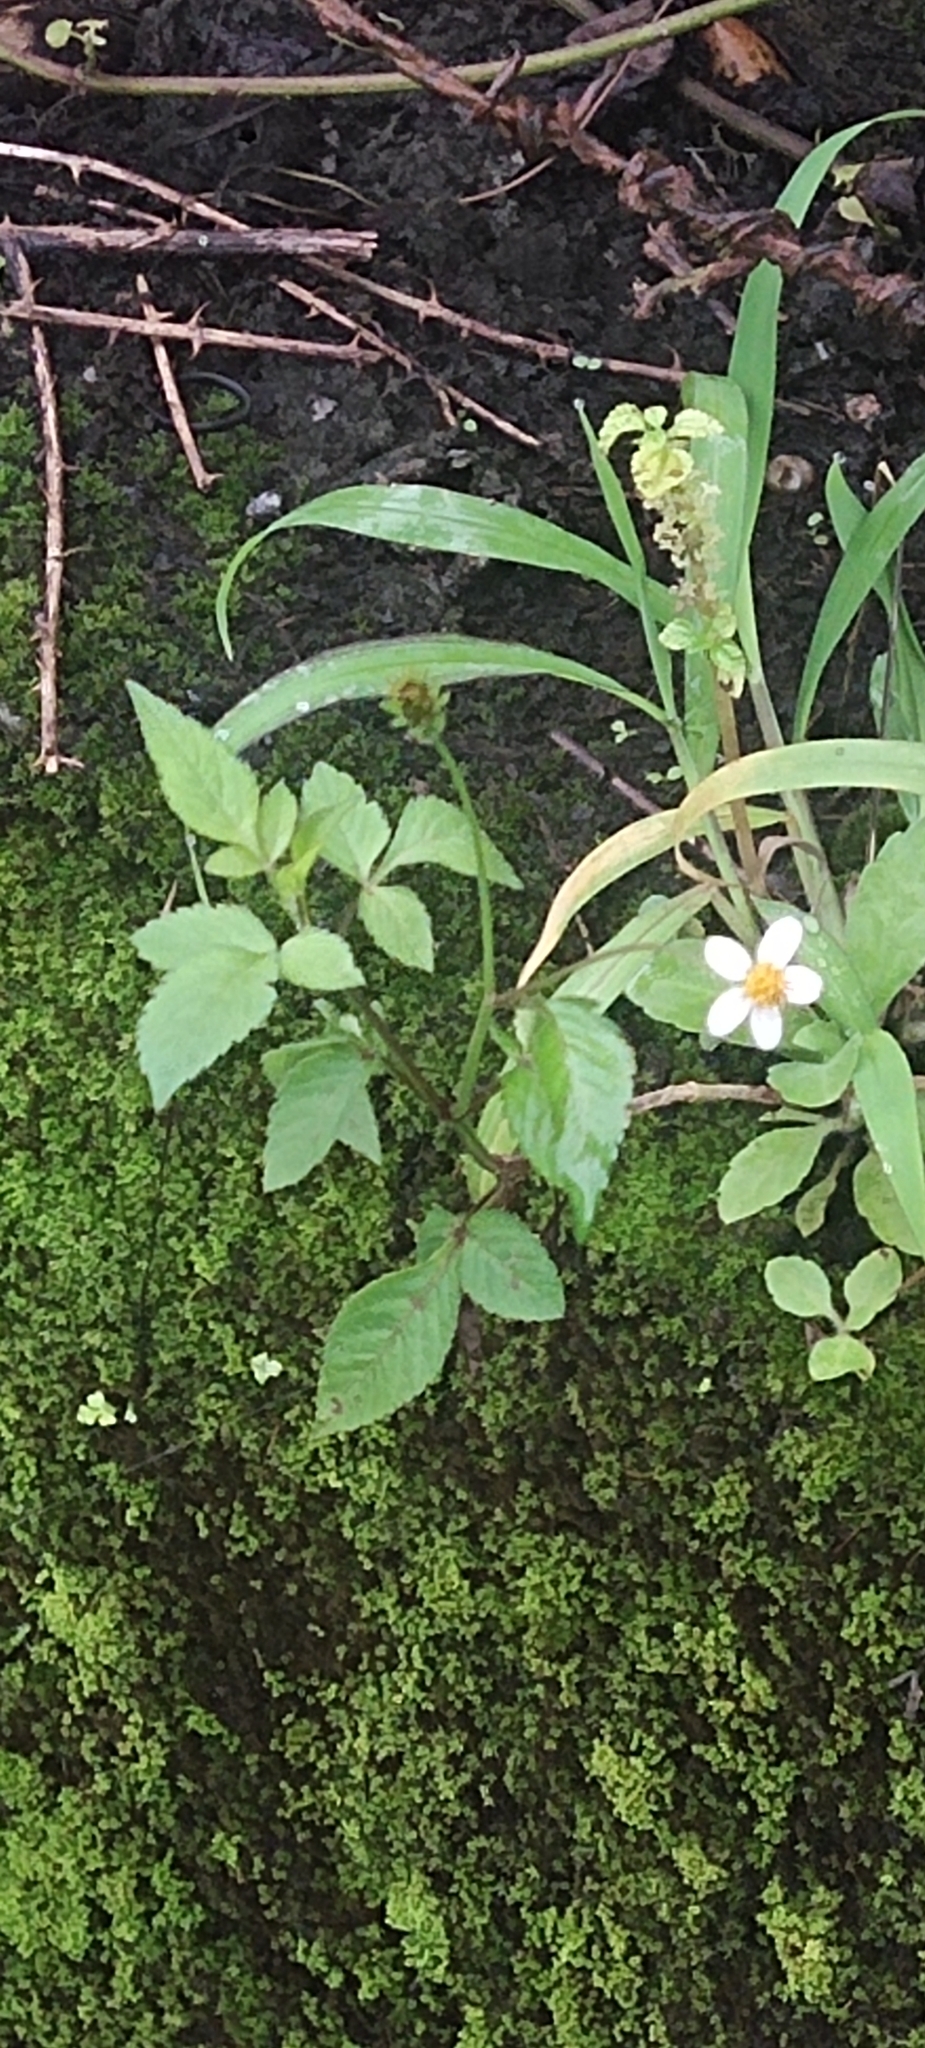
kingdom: Plantae
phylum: Tracheophyta
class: Magnoliopsida
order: Asterales
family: Asteraceae
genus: Bidens
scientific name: Bidens alba
